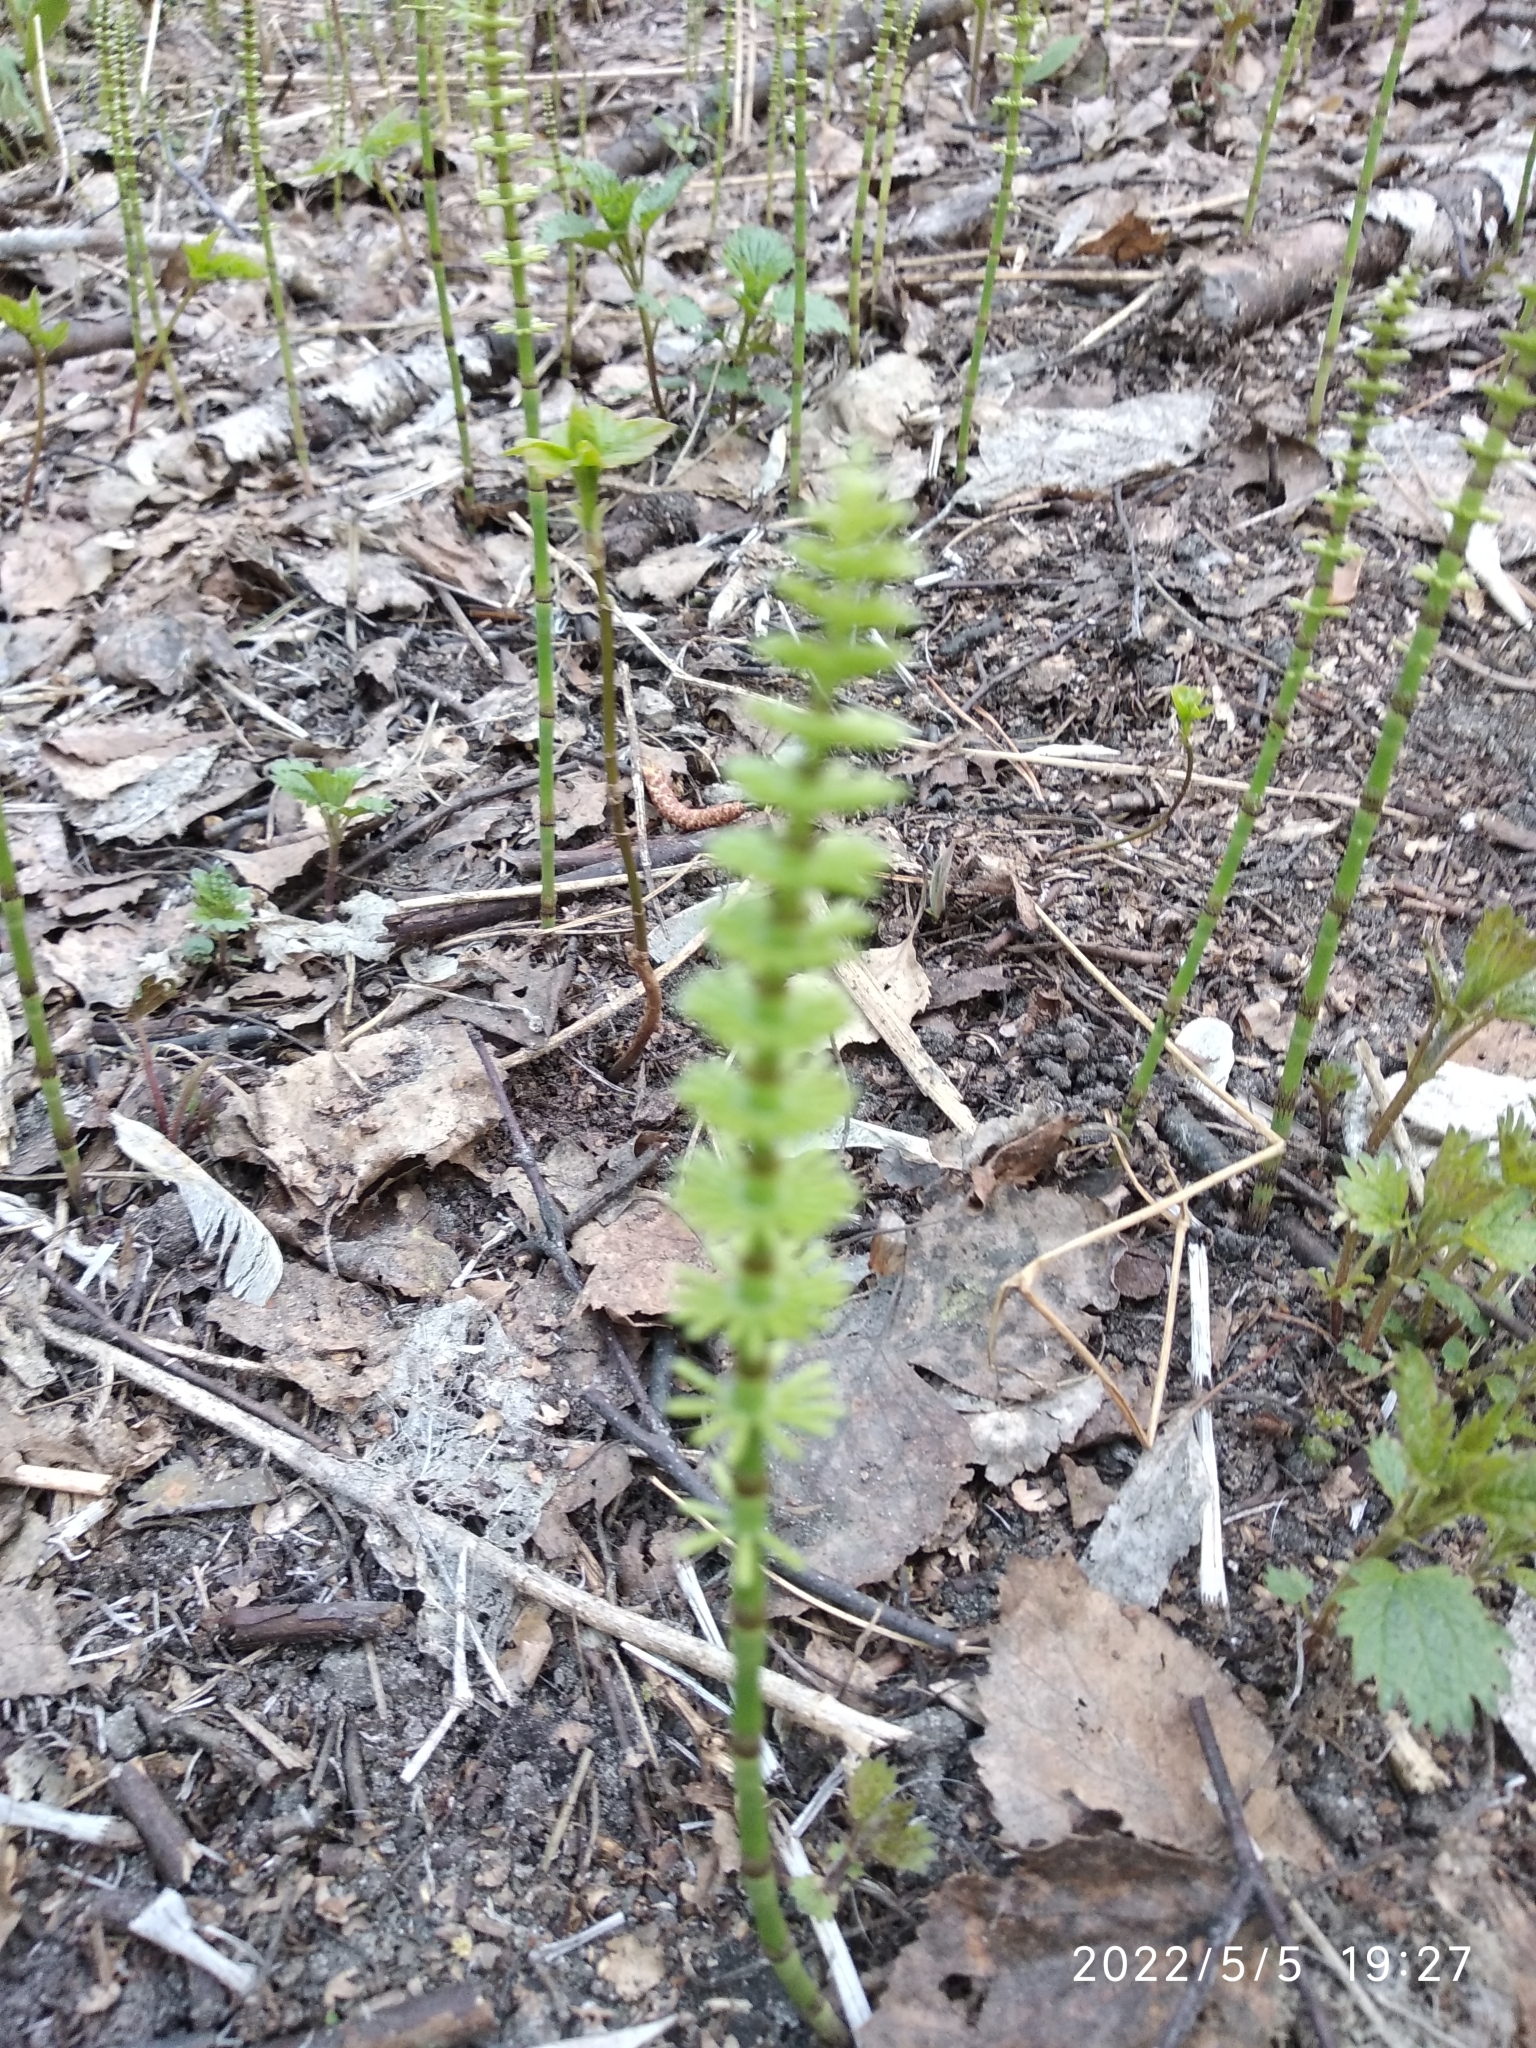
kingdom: Plantae
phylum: Tracheophyta
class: Polypodiopsida
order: Equisetales
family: Equisetaceae
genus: Equisetum
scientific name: Equisetum pratense
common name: Meadow horsetail
